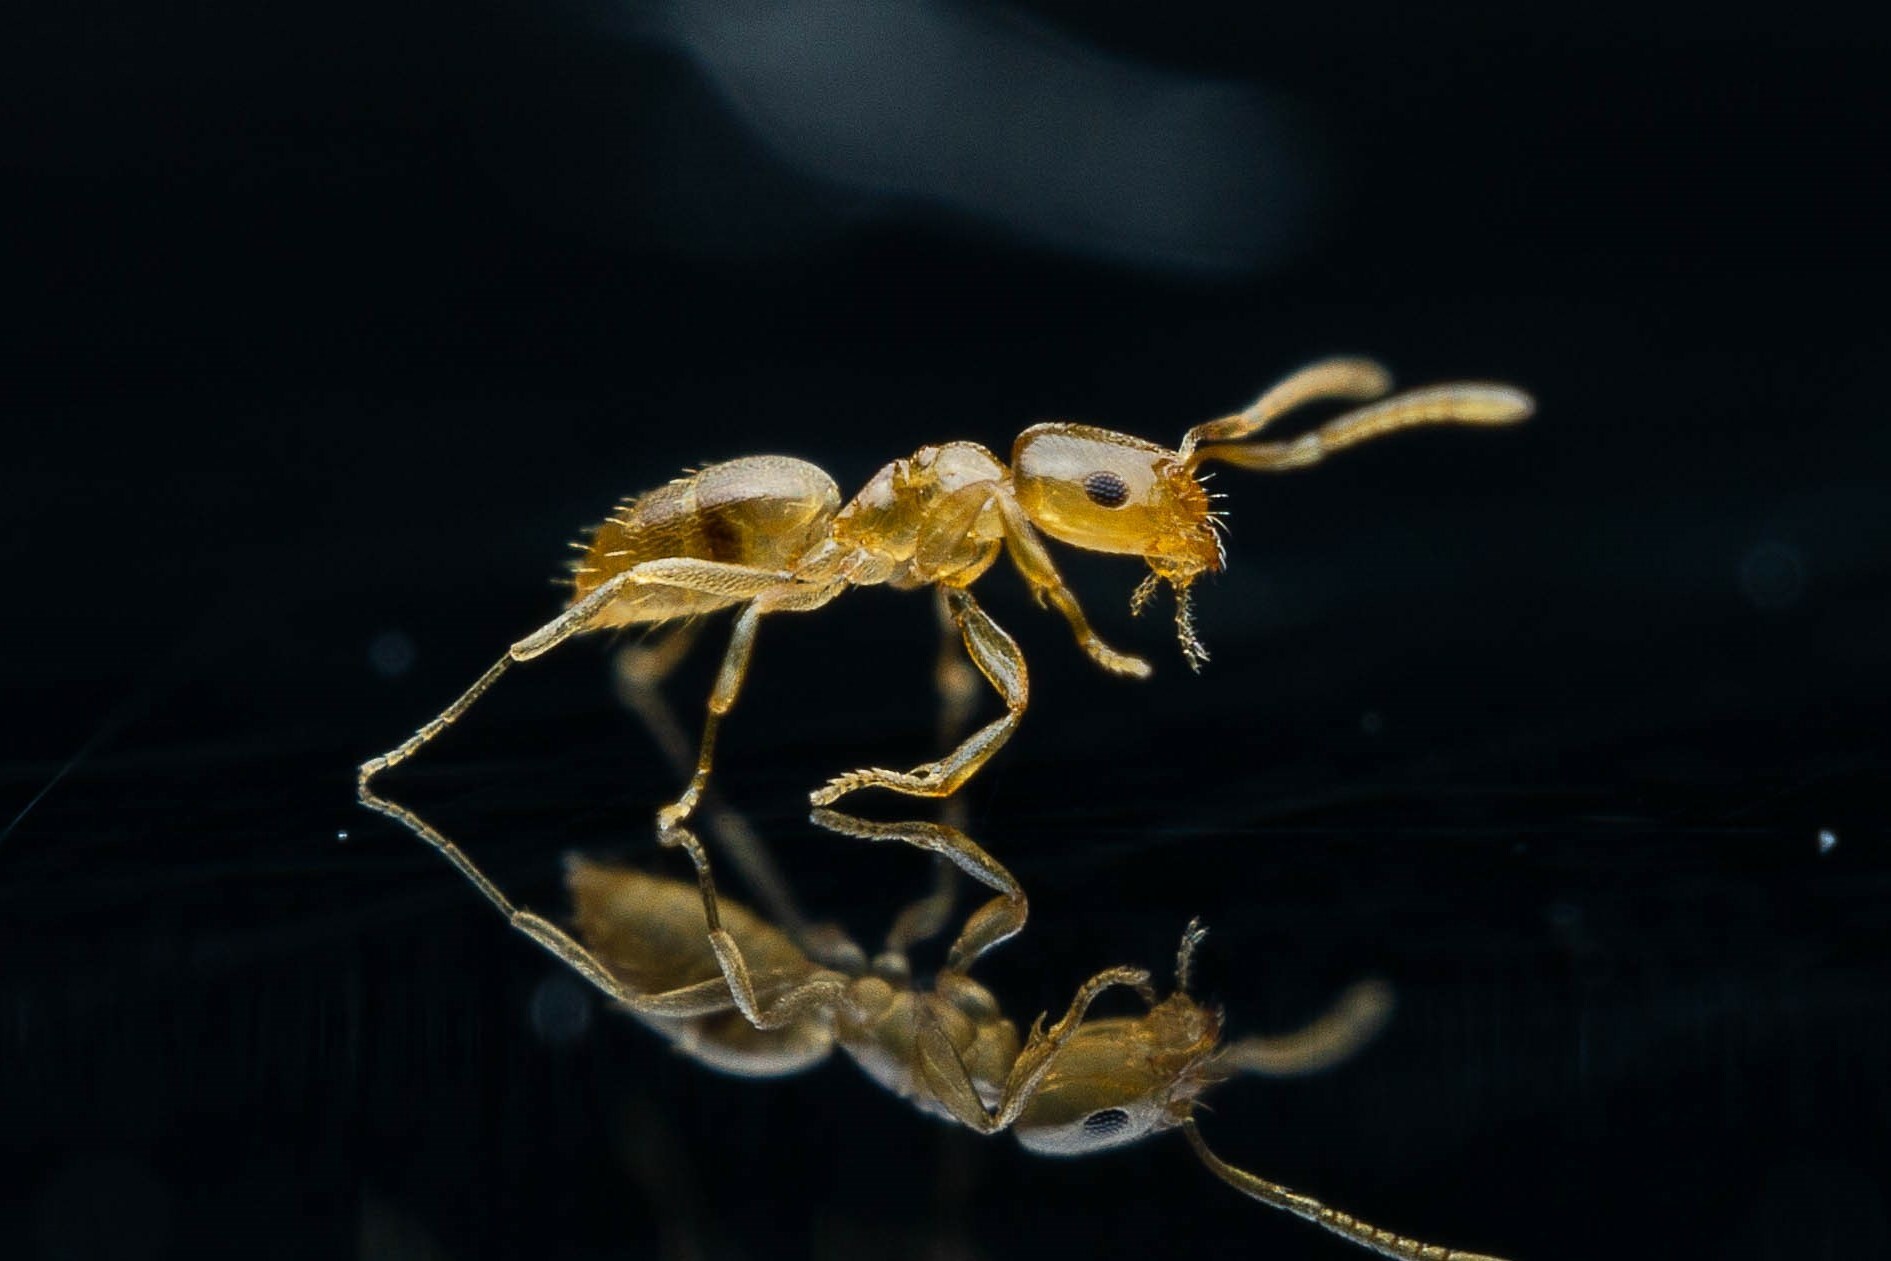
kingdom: Animalia
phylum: Arthropoda
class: Insecta
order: Hymenoptera
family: Formicidae
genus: Brachymyrmex
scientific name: Brachymyrmex depilis
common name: Hairless rover ant
